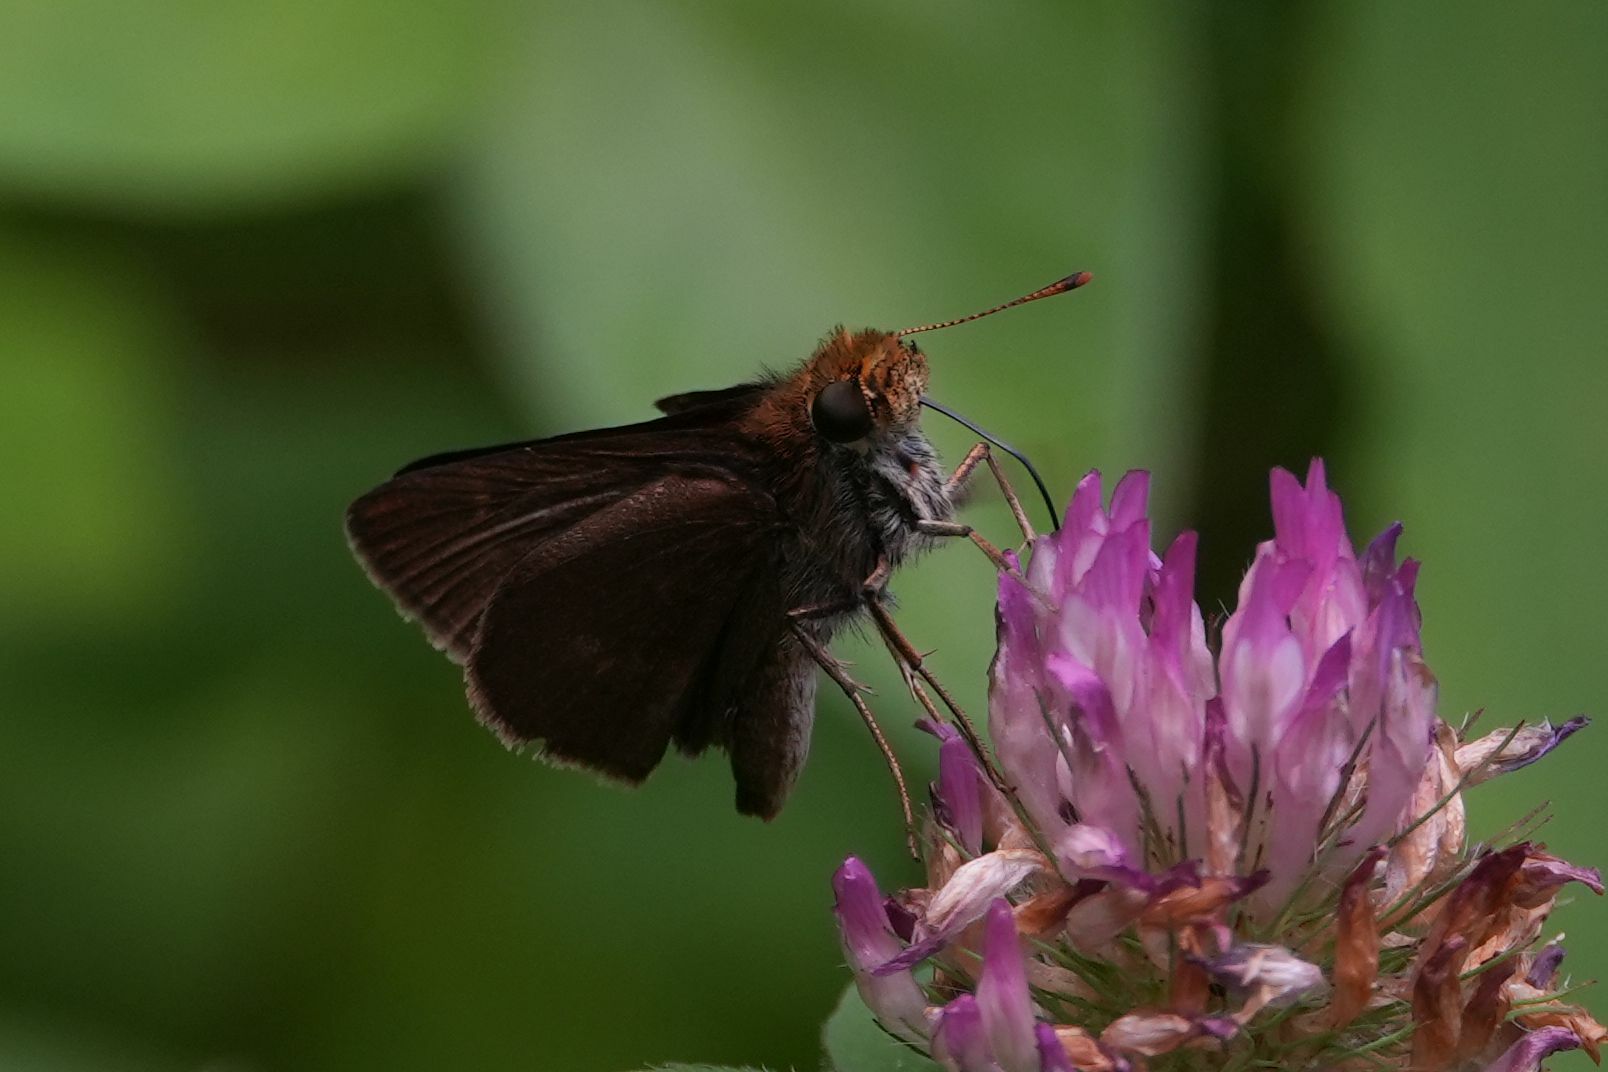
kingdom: Animalia
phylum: Arthropoda
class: Insecta
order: Lepidoptera
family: Hesperiidae
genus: Euphyes
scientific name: Euphyes vestris
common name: Dun skipper
